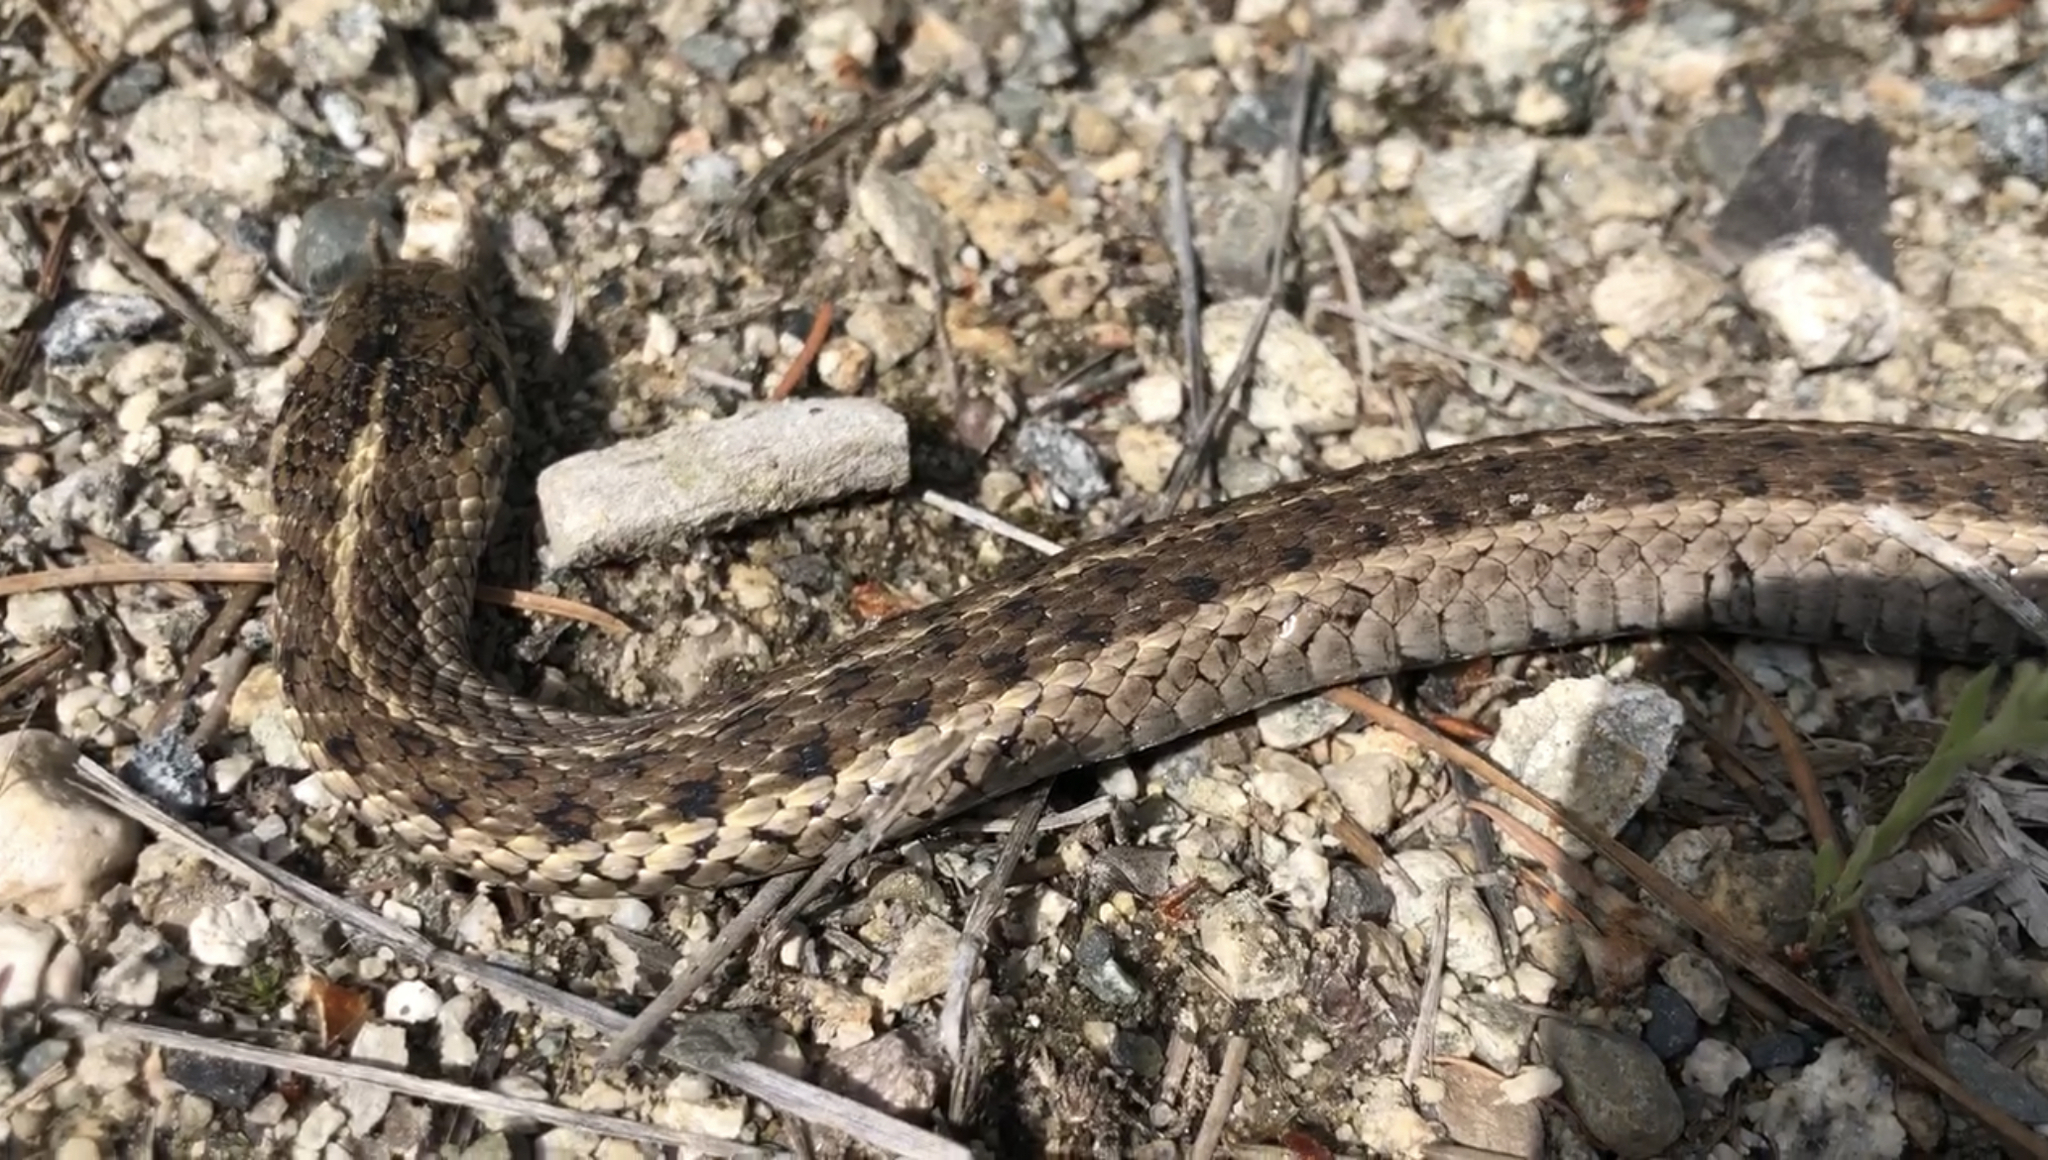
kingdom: Animalia
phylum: Chordata
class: Squamata
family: Colubridae
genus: Thamnophis
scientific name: Thamnophis elegans
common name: Western terrestrial garter snake
